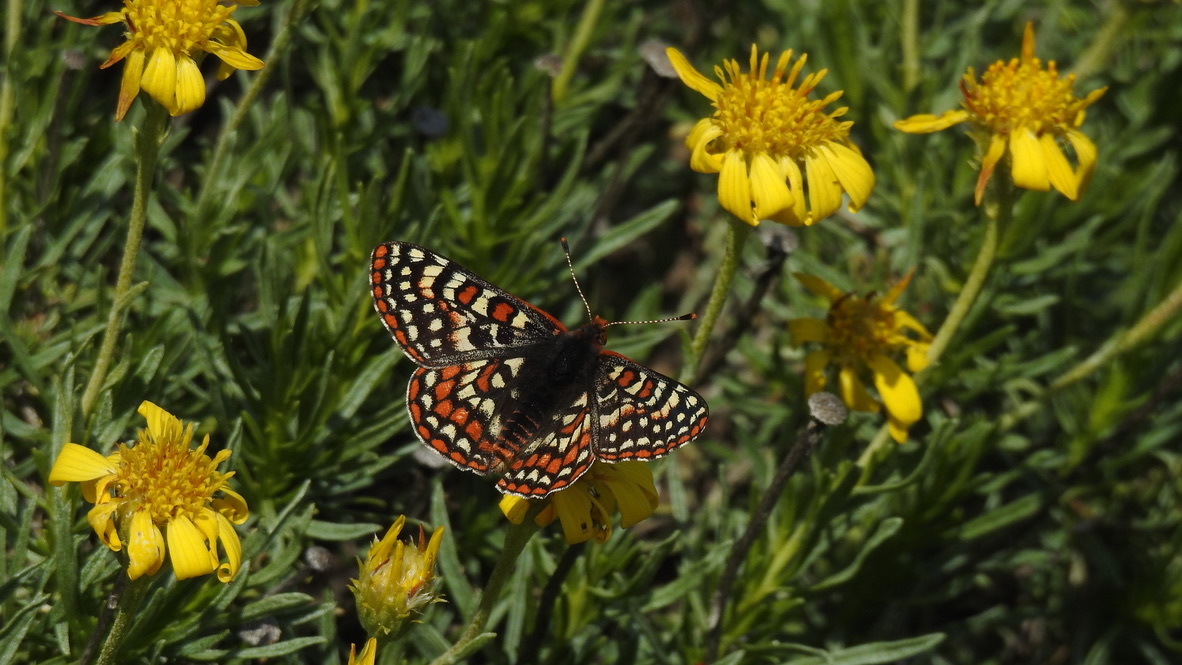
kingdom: Animalia
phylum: Arthropoda
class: Insecta
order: Lepidoptera
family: Nymphalidae
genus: Occidryas
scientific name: Occidryas editha
